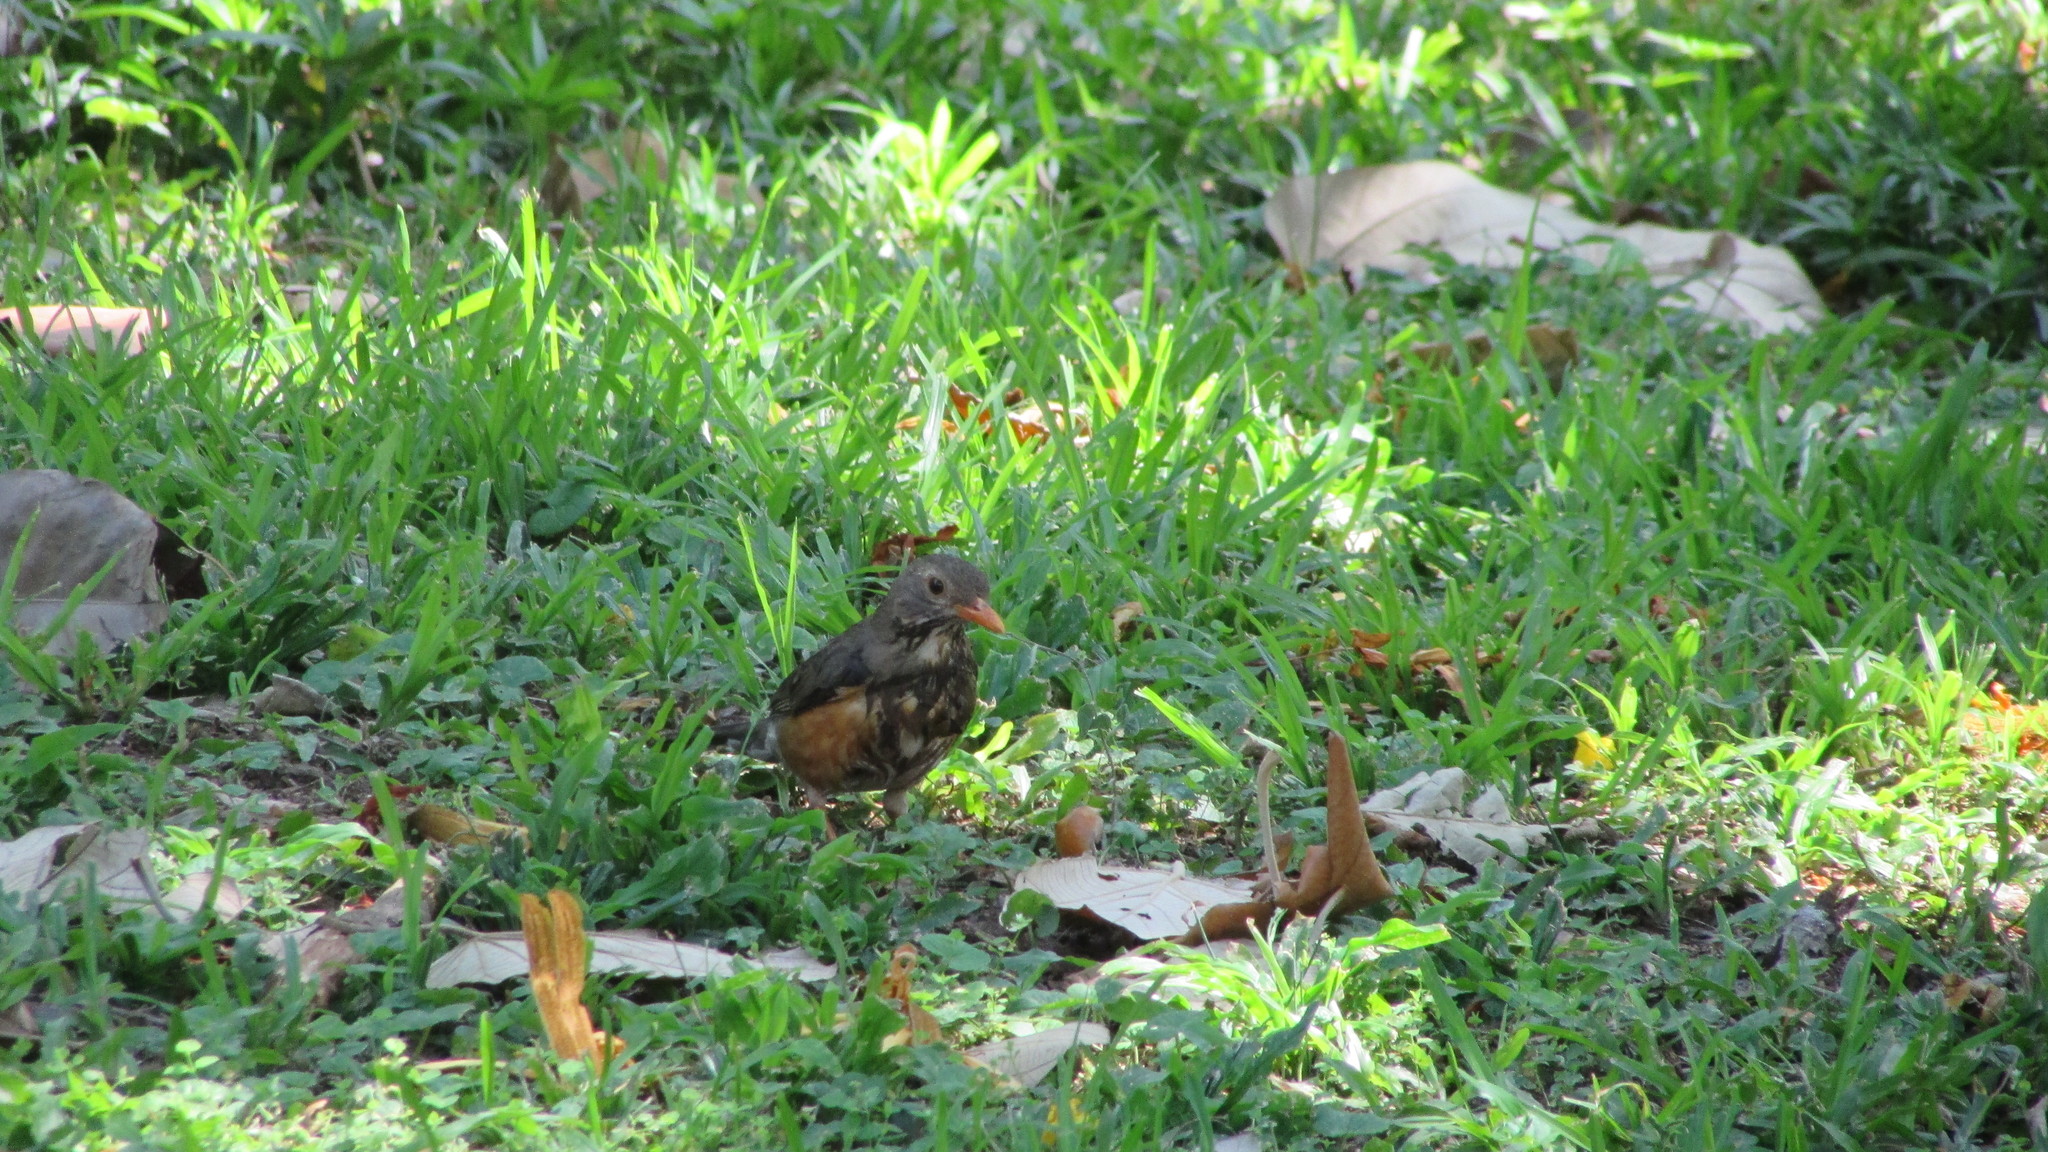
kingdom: Animalia
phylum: Chordata
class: Aves
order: Passeriformes
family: Turdidae
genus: Turdus
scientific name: Turdus libonyana
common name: Kurrichane thrush
